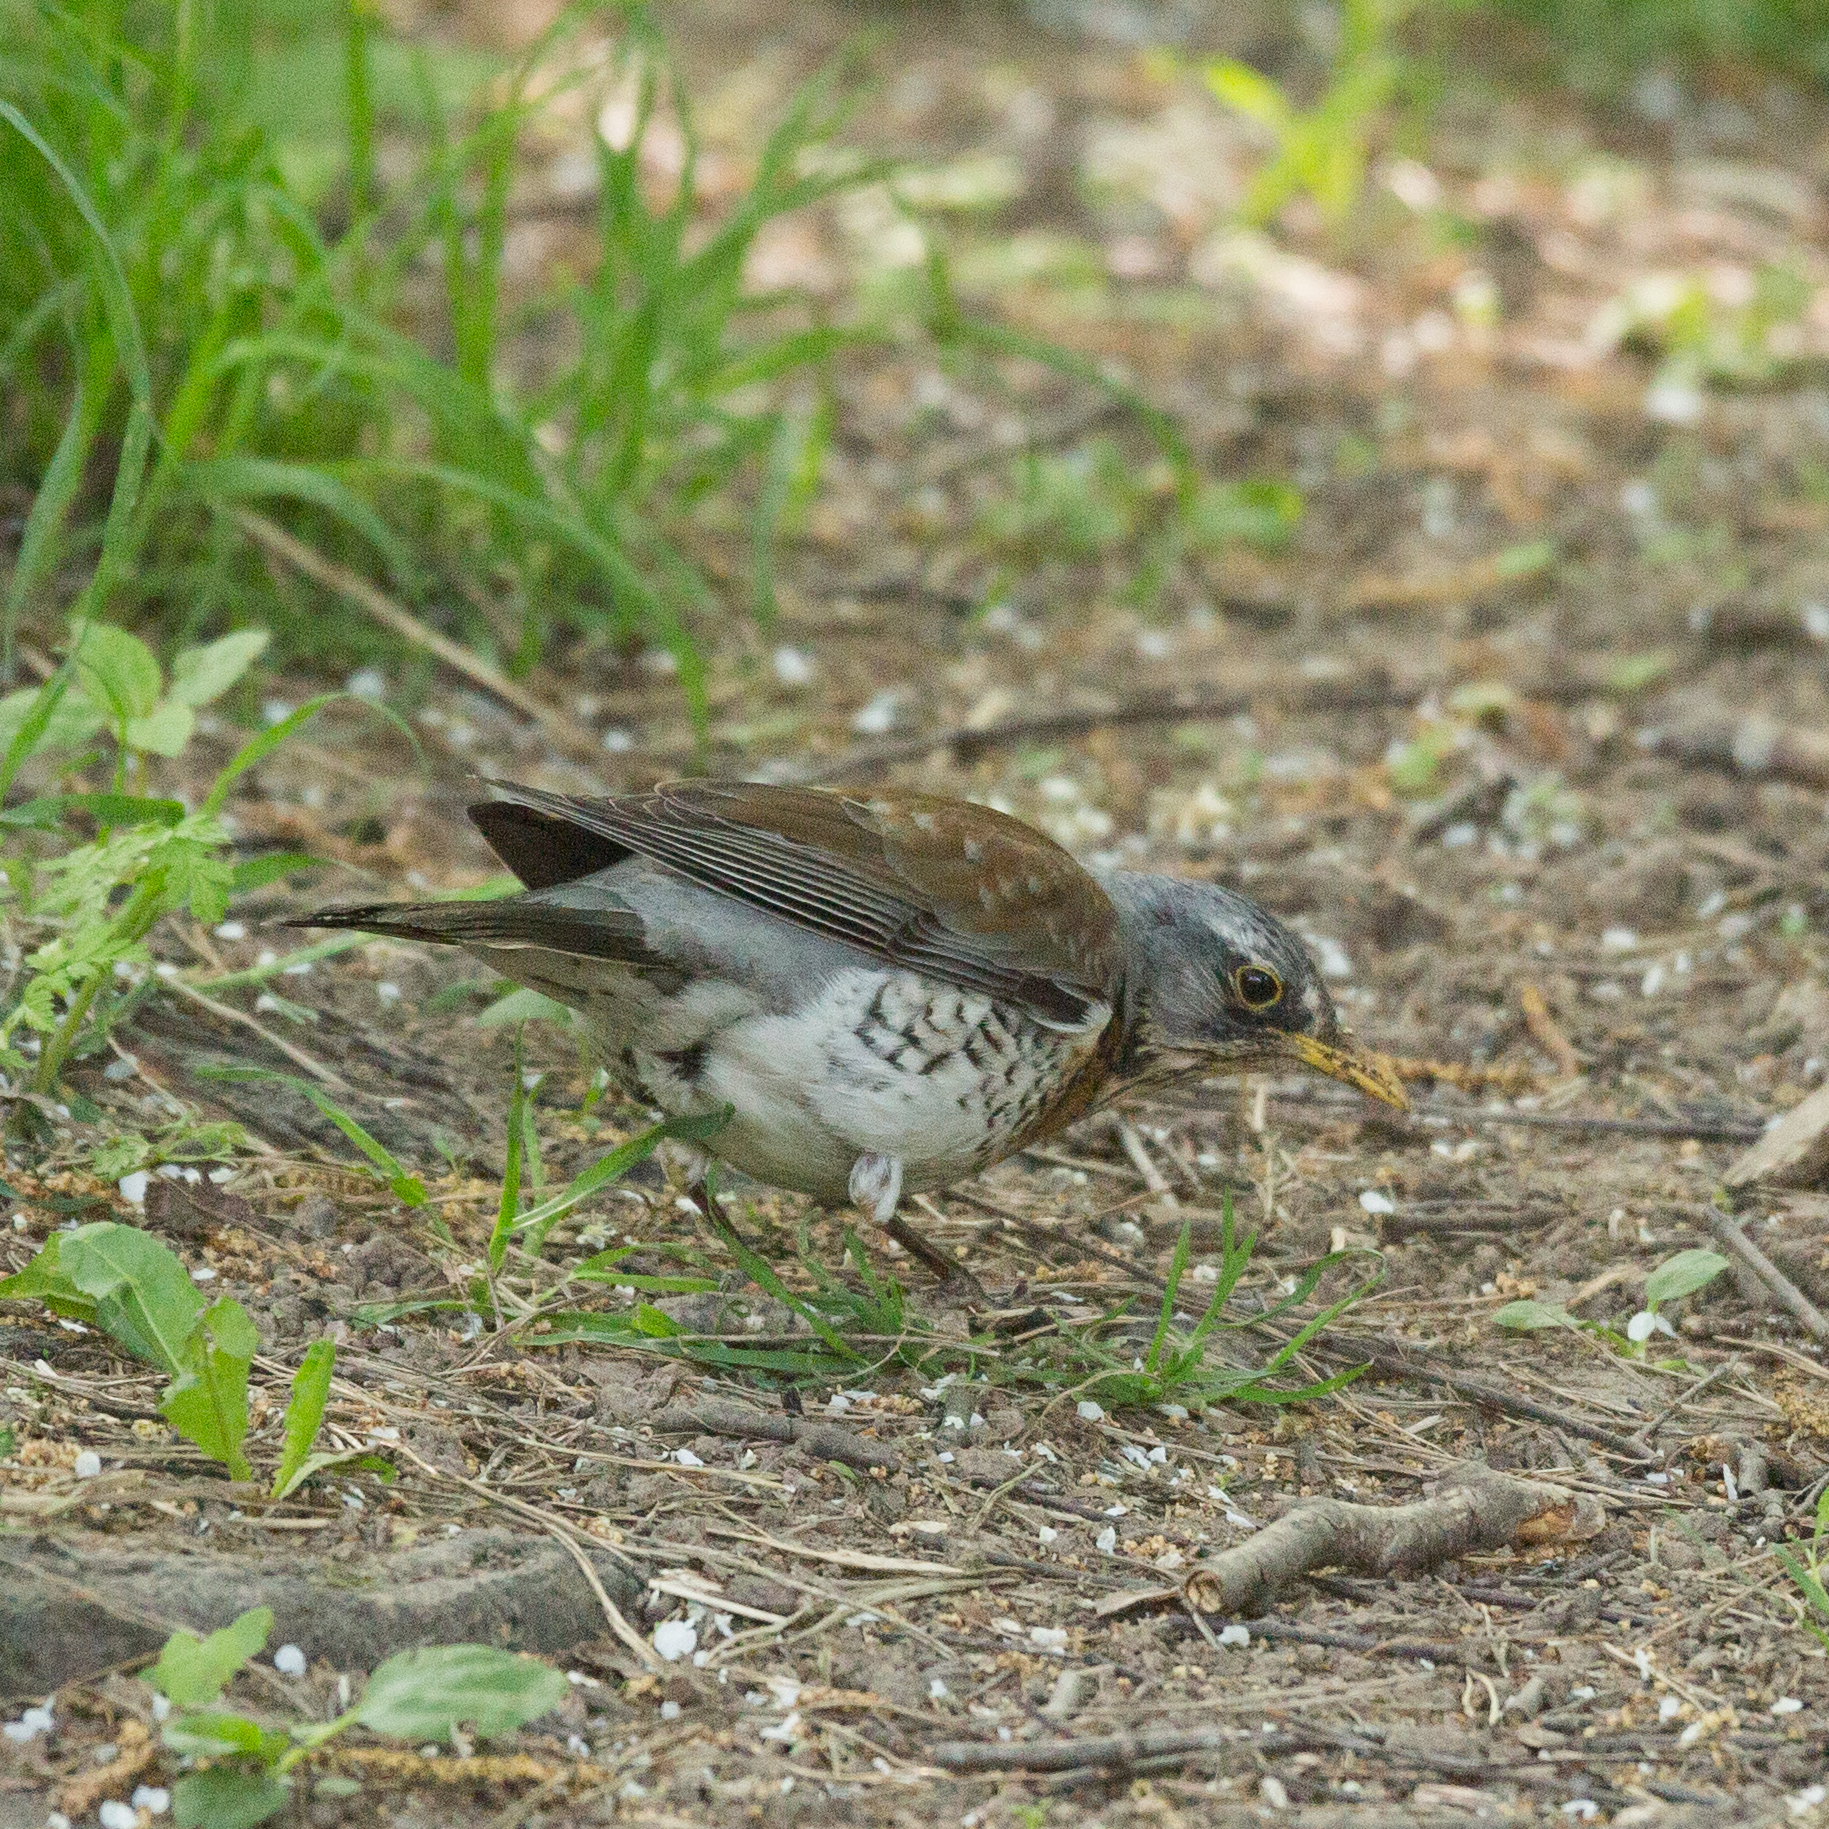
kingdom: Animalia
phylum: Chordata
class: Aves
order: Passeriformes
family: Turdidae
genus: Turdus
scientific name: Turdus pilaris
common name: Fieldfare
